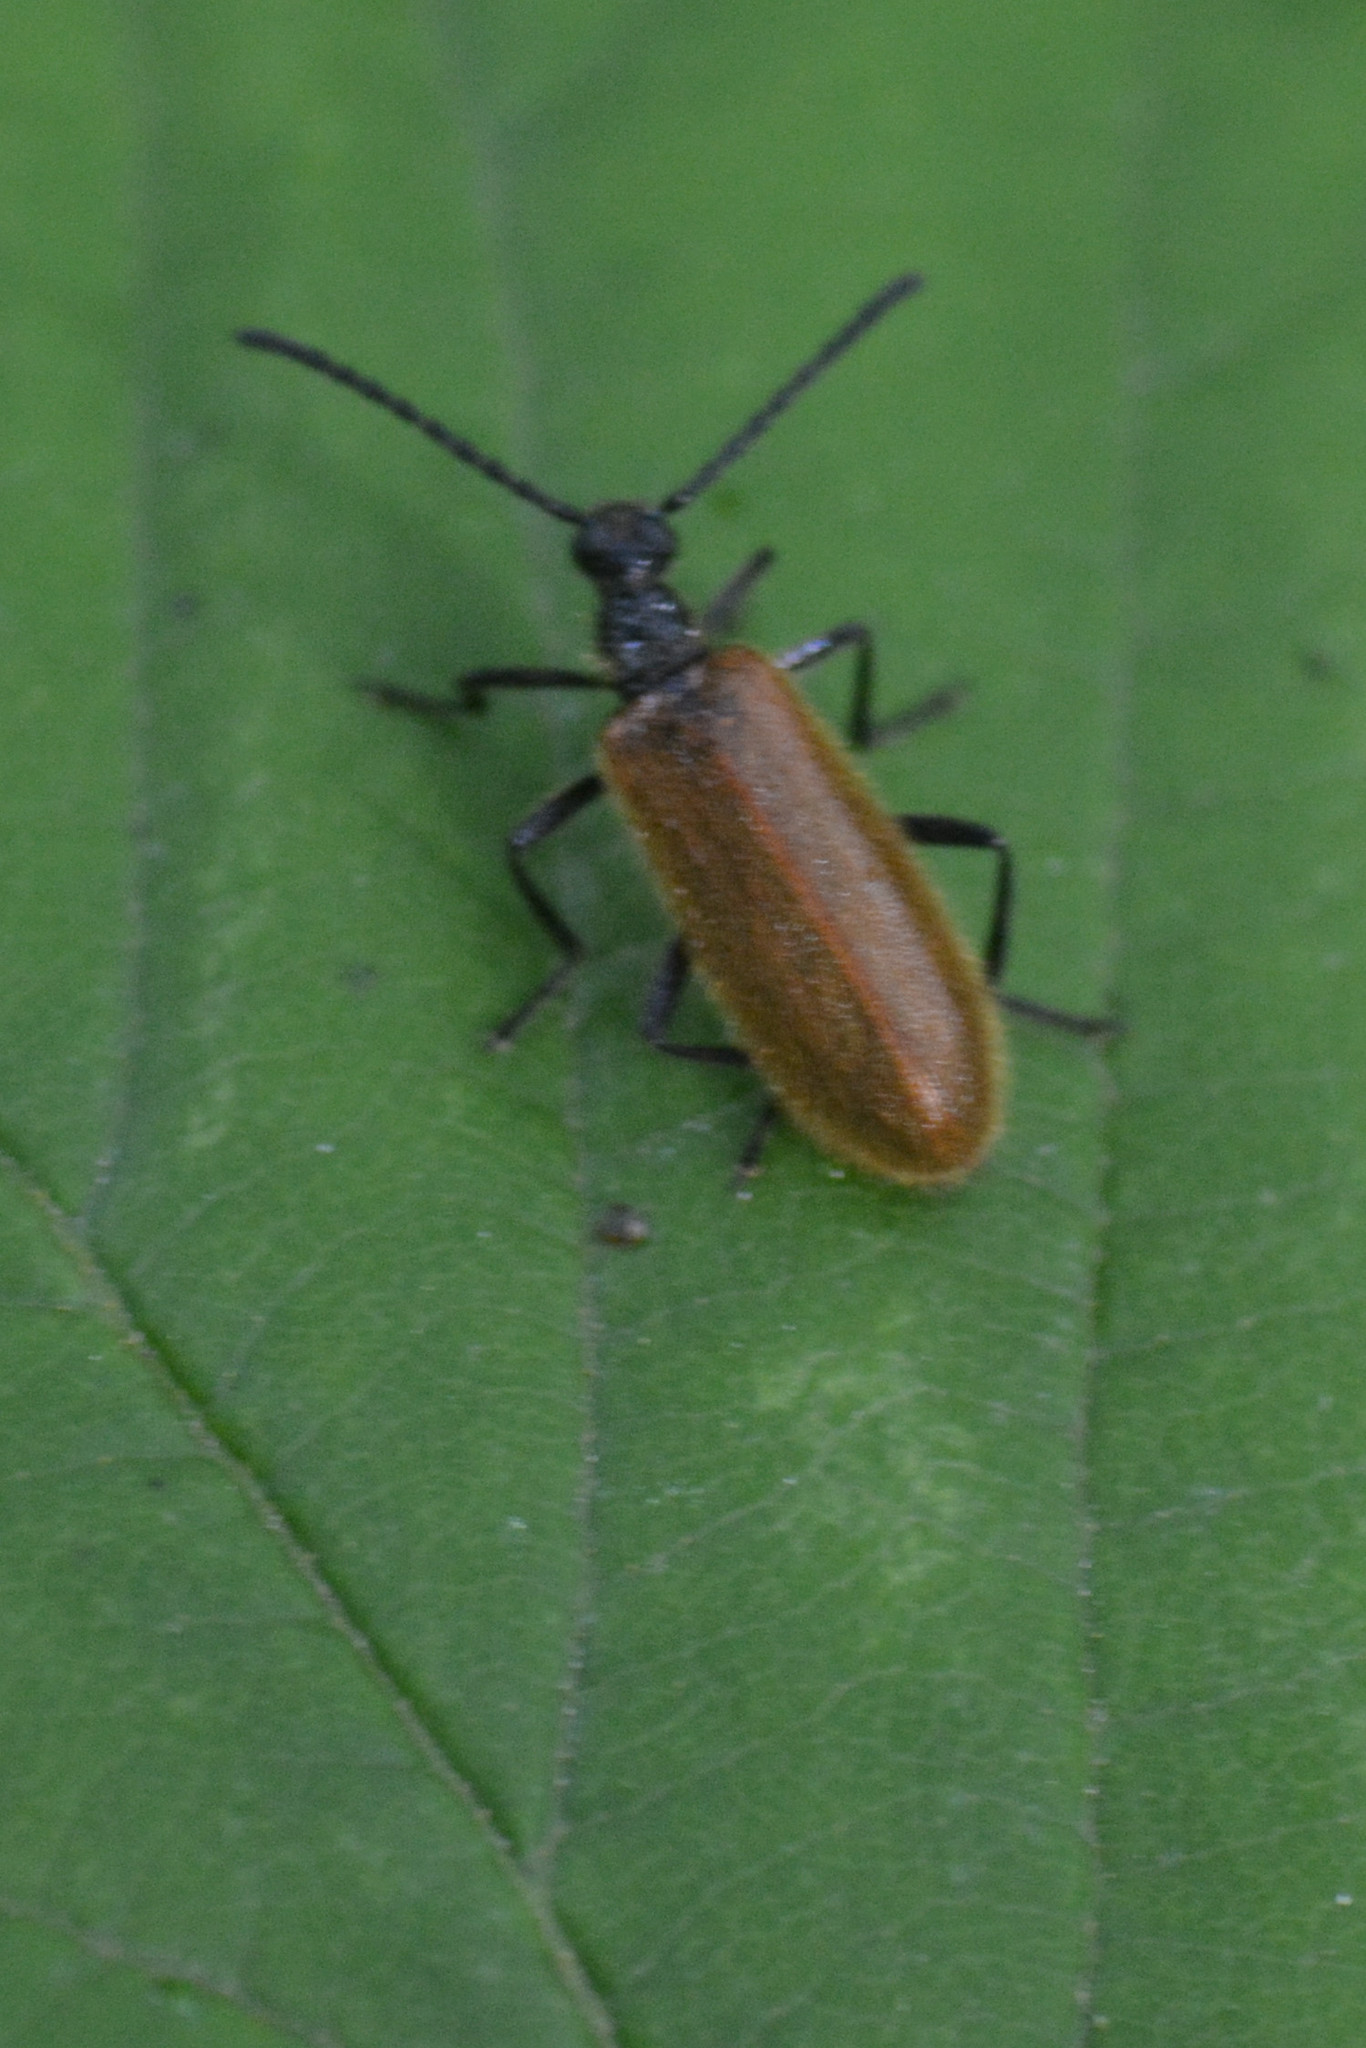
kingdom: Animalia
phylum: Arthropoda
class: Insecta
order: Coleoptera
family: Tenebrionidae
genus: Lagria
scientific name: Lagria hirta
